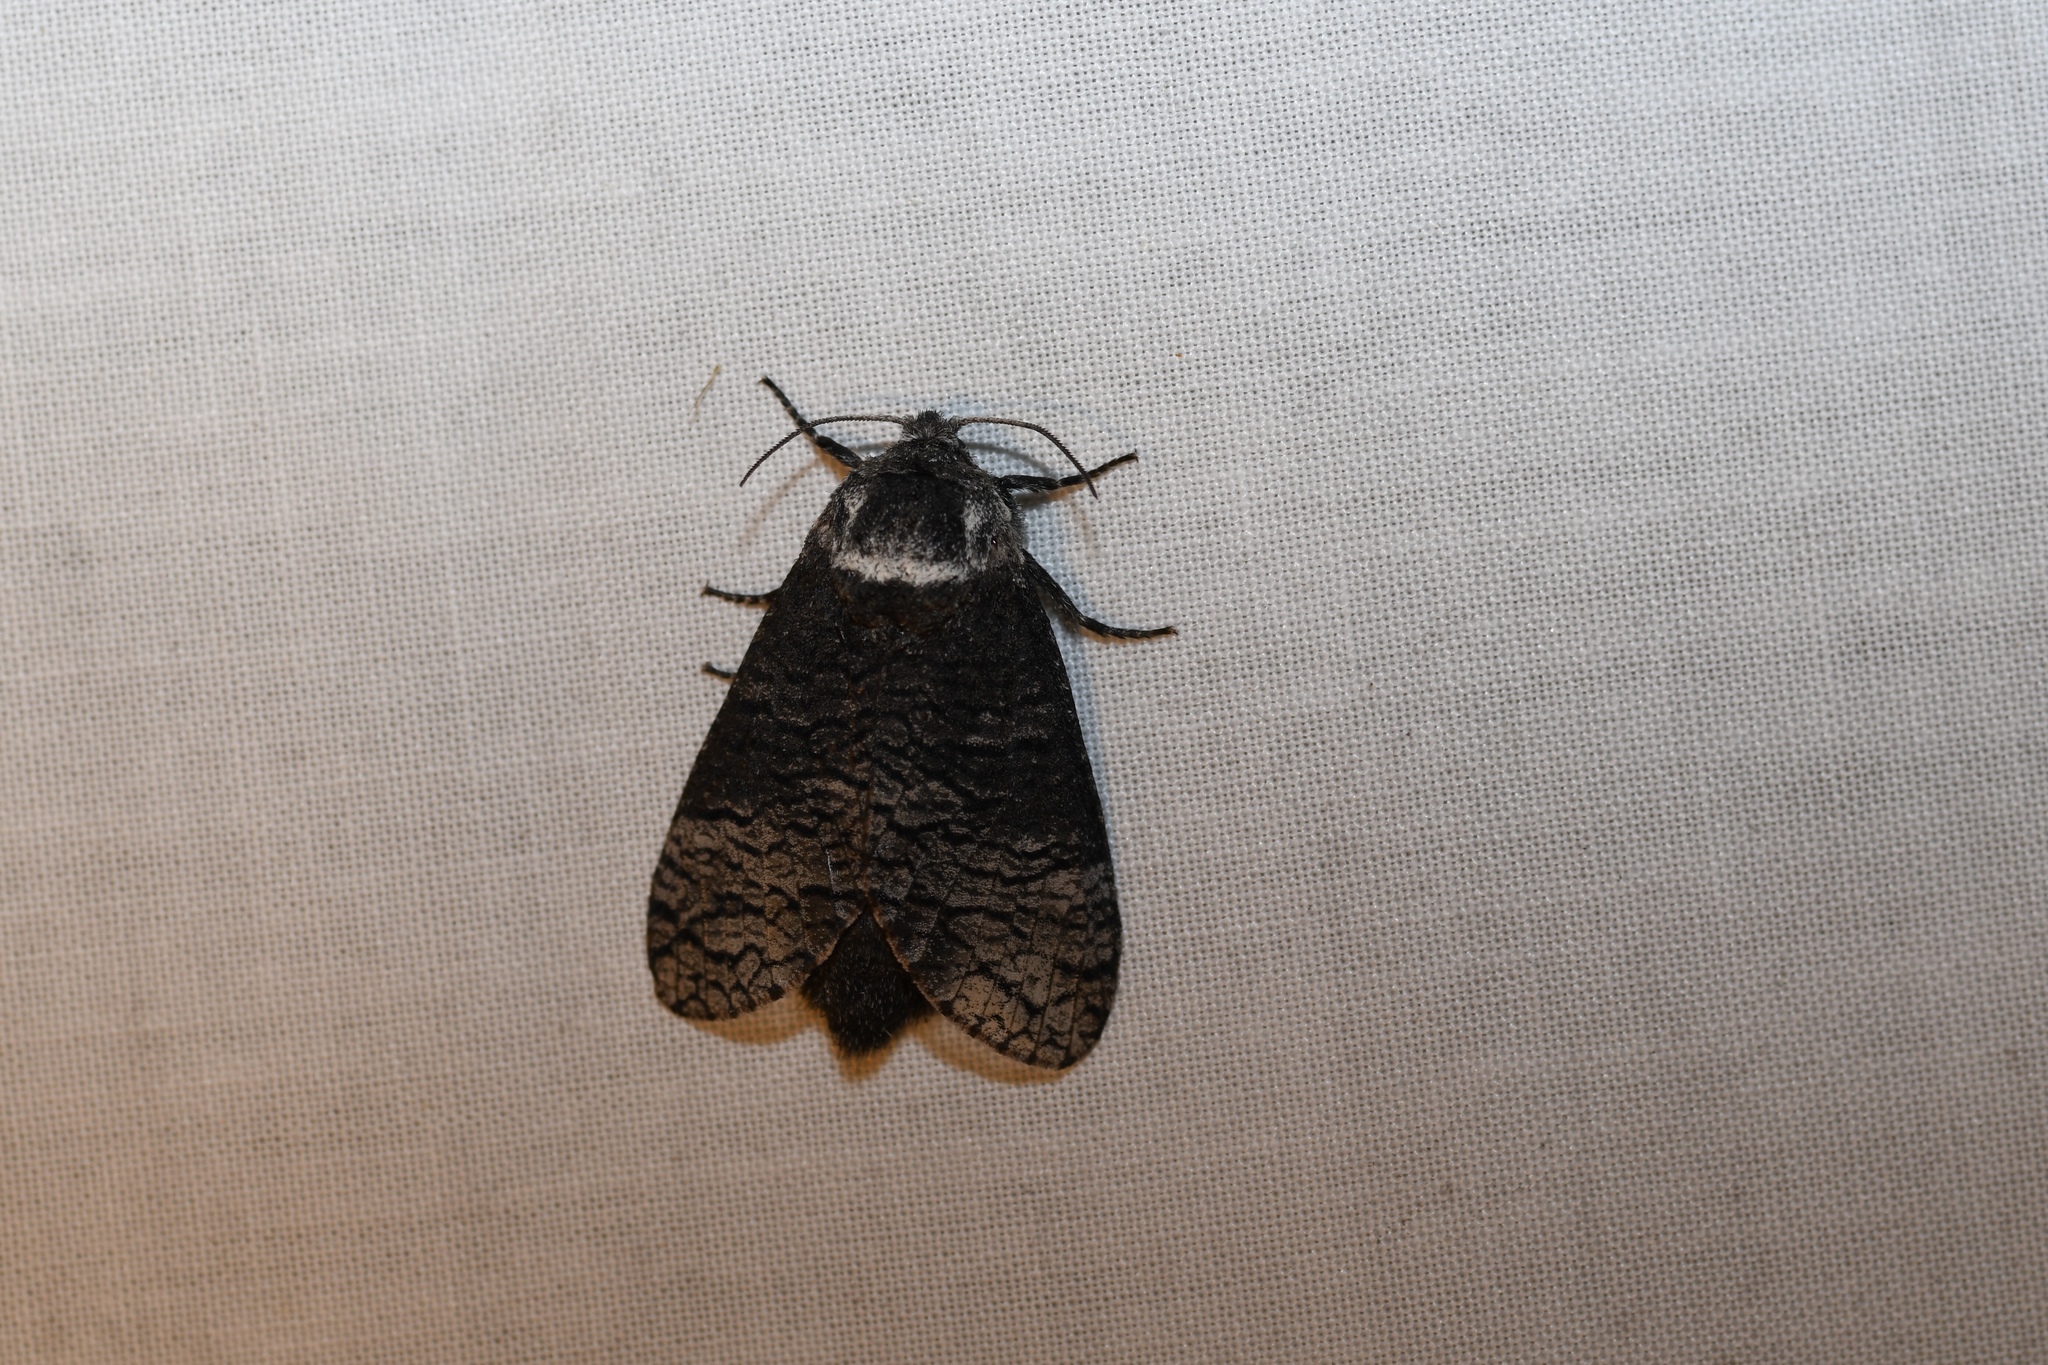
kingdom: Animalia
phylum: Arthropoda
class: Insecta
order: Lepidoptera
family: Cossidae
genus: Acossus
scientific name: Acossus centerensis
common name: Poplar carpenterworm moth
